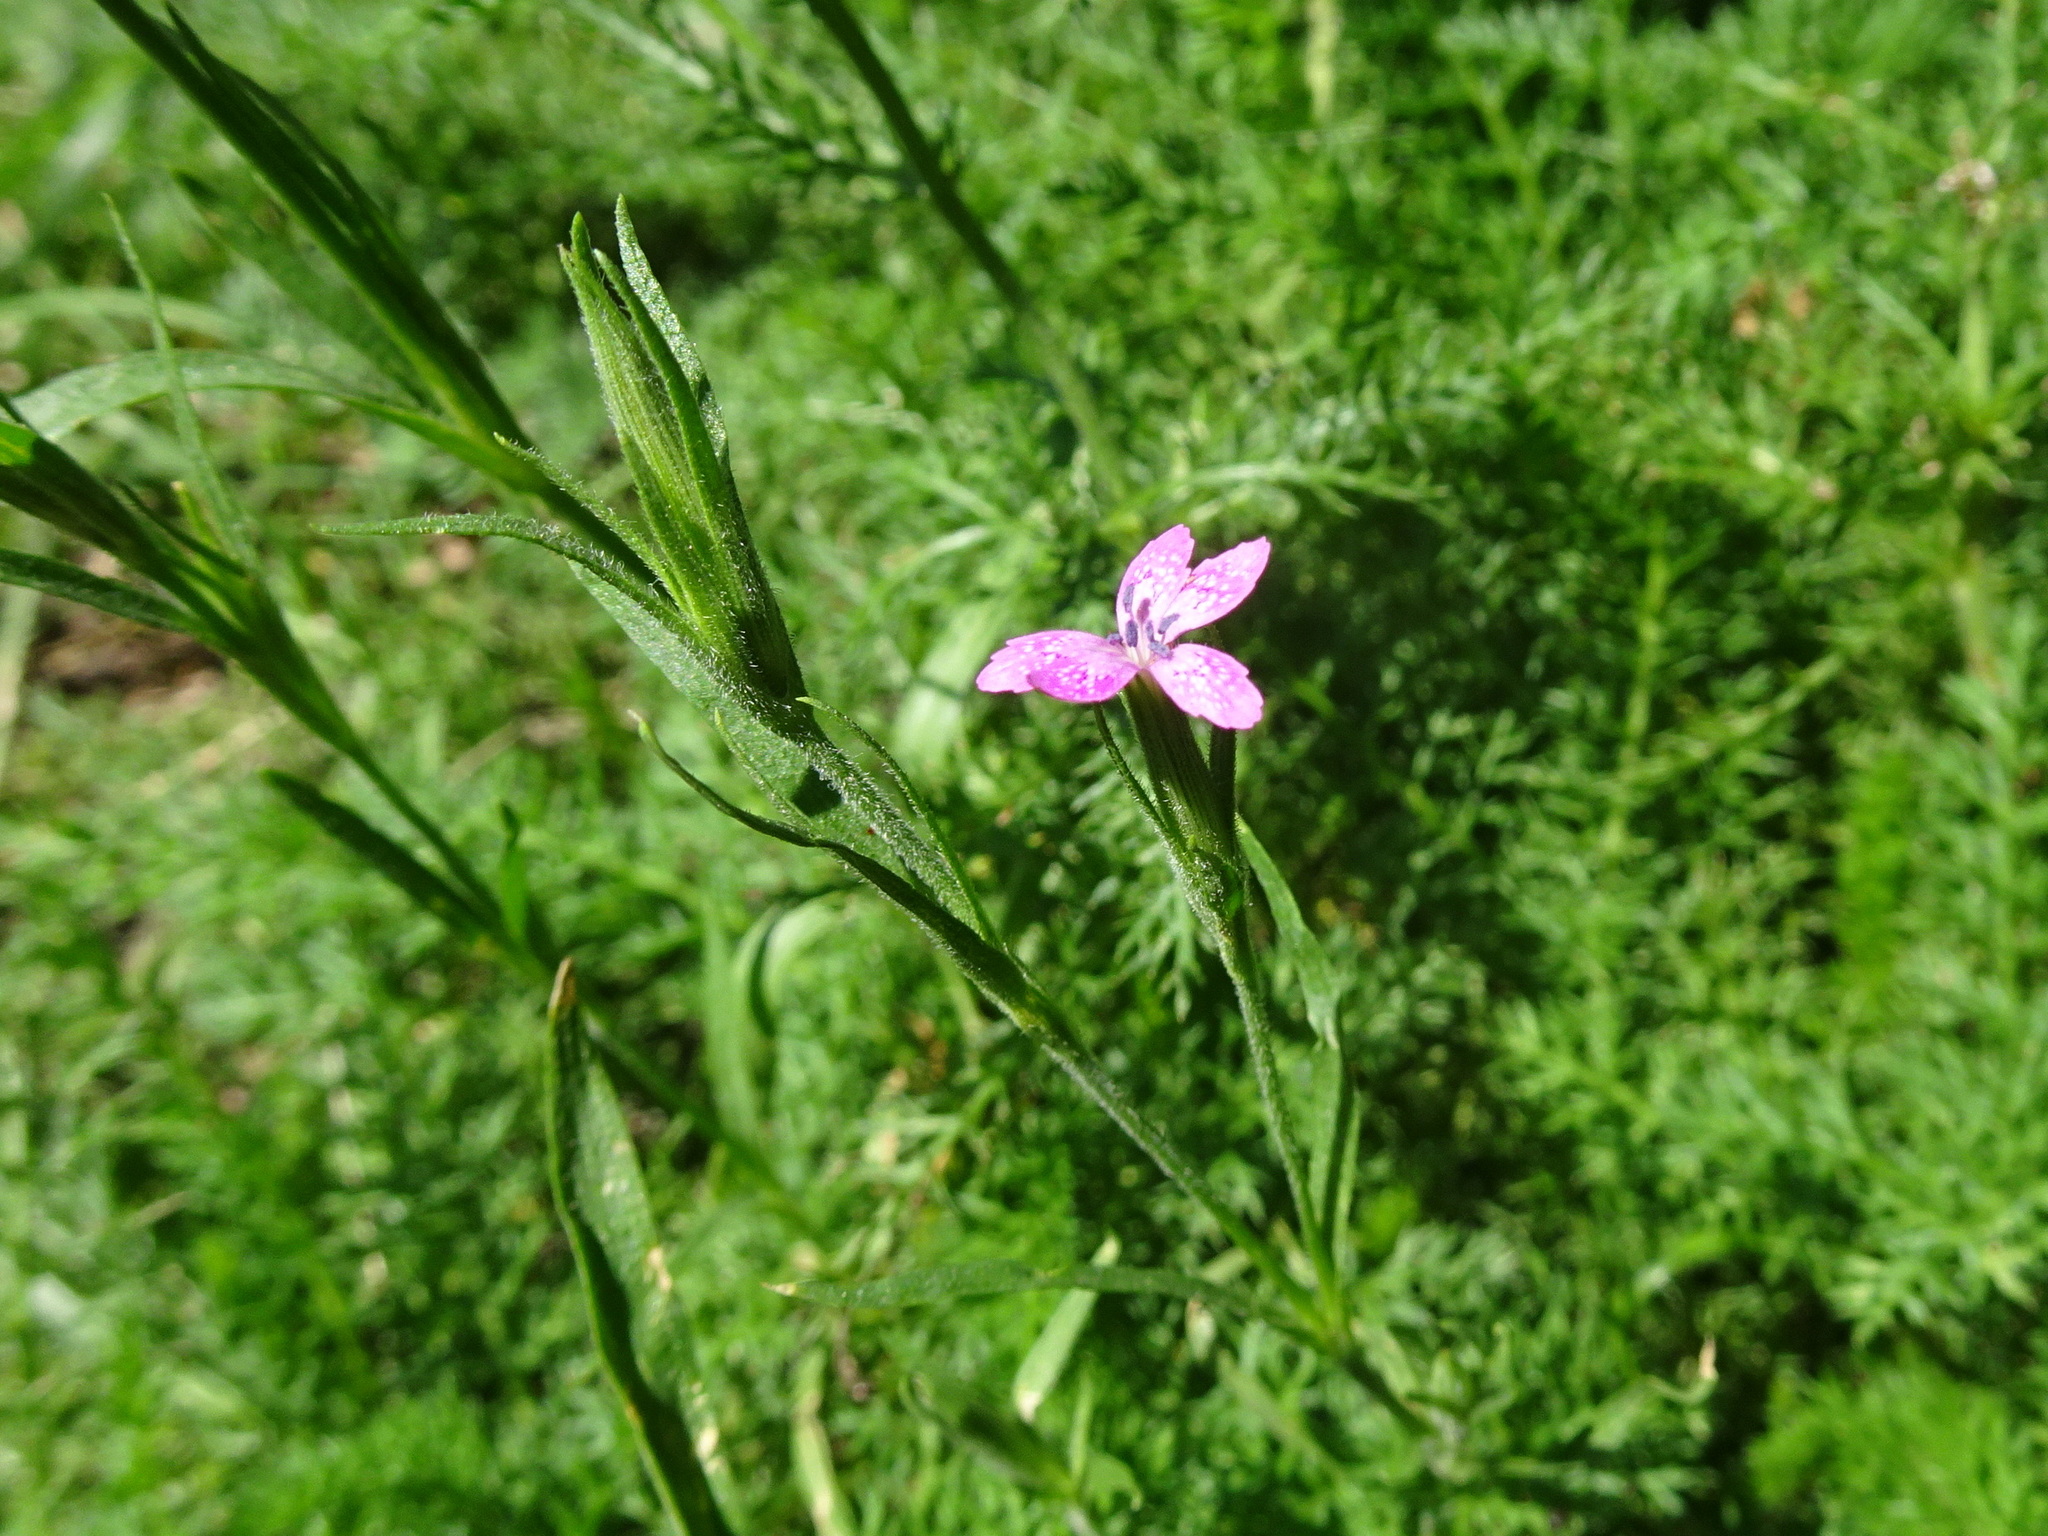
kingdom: Plantae
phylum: Tracheophyta
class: Magnoliopsida
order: Caryophyllales
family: Caryophyllaceae
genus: Dianthus
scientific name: Dianthus armeria
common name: Deptford pink
